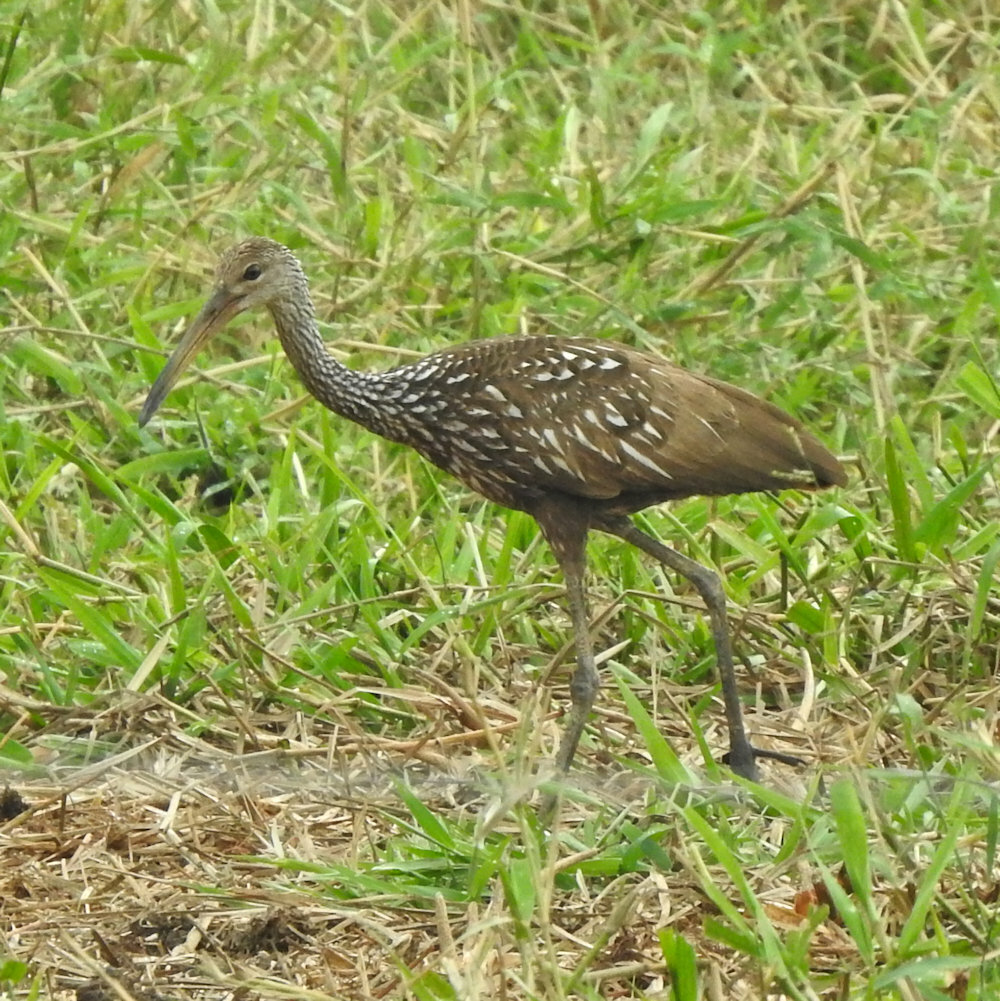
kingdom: Animalia
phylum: Chordata
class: Aves
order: Gruiformes
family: Aramidae
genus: Aramus
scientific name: Aramus guarauna
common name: Limpkin
